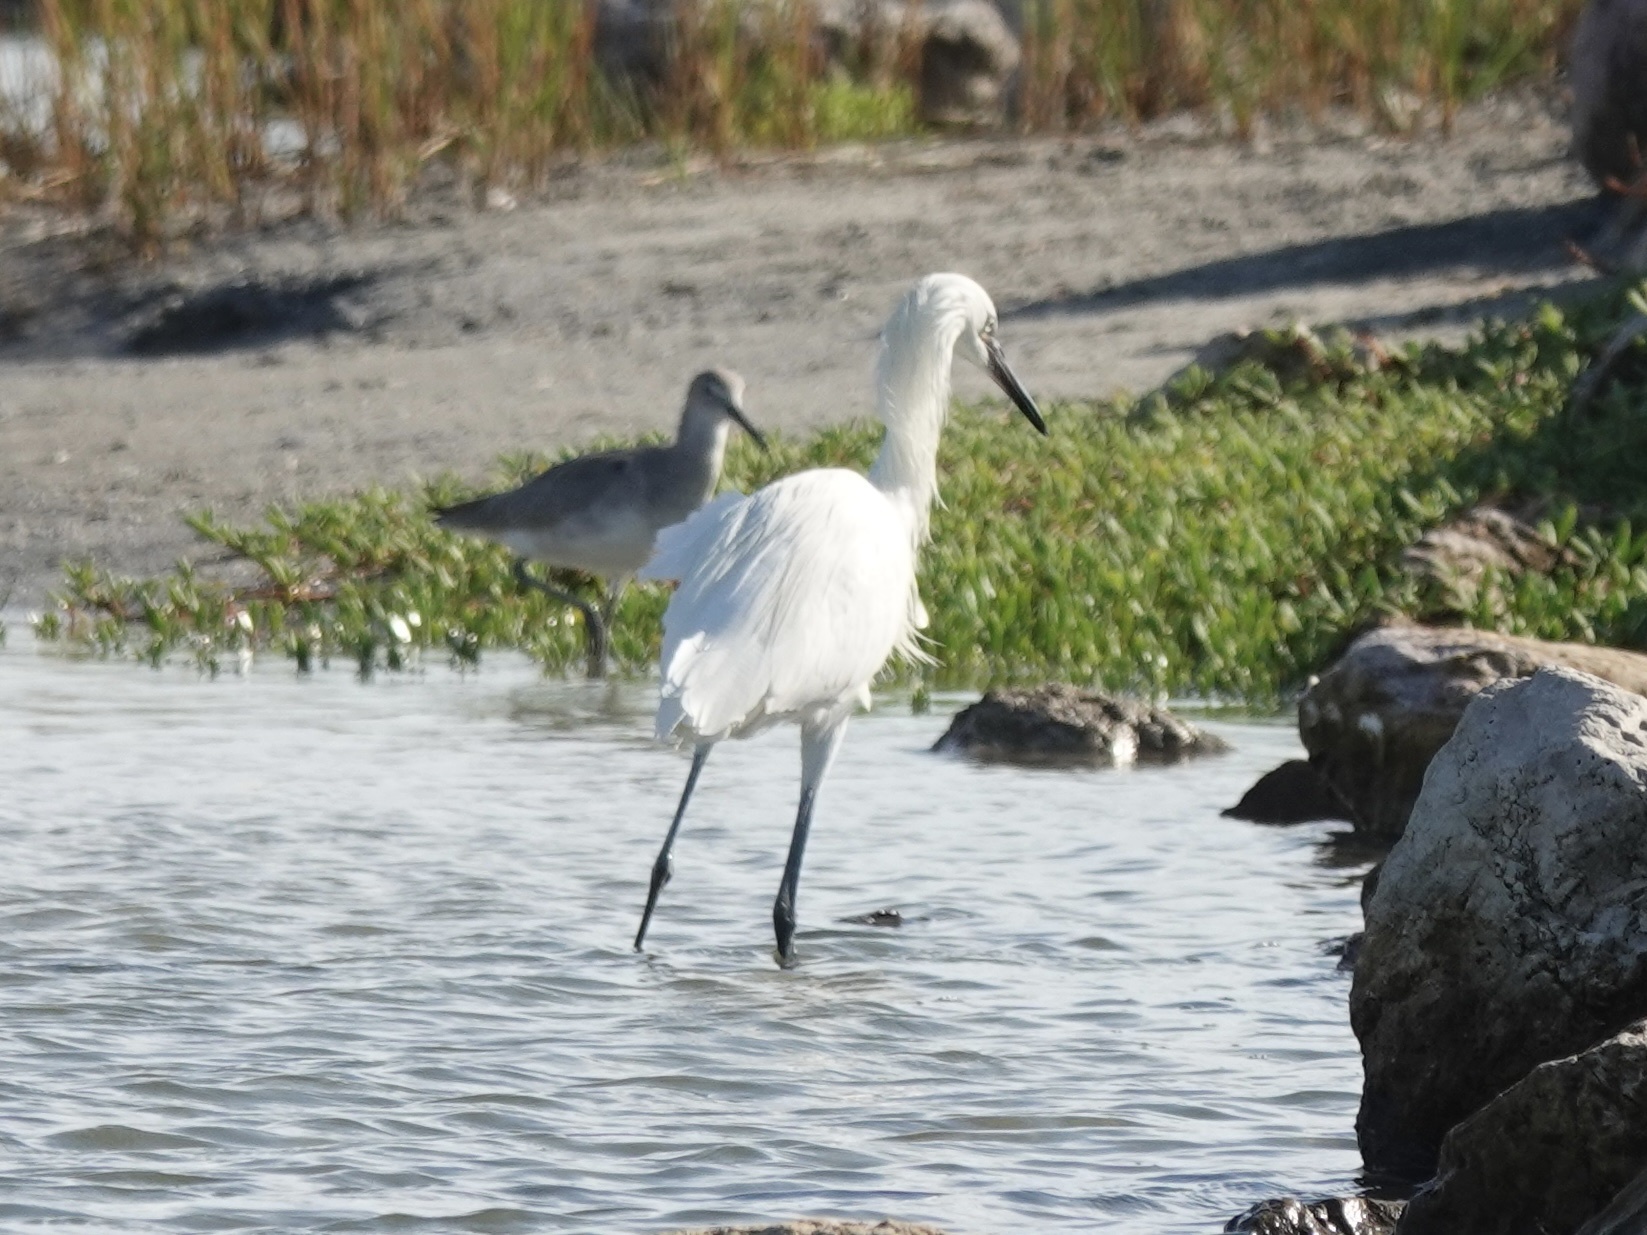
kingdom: Animalia
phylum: Chordata
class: Aves
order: Pelecaniformes
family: Ardeidae
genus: Egretta
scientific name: Egretta rufescens
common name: Reddish egret
